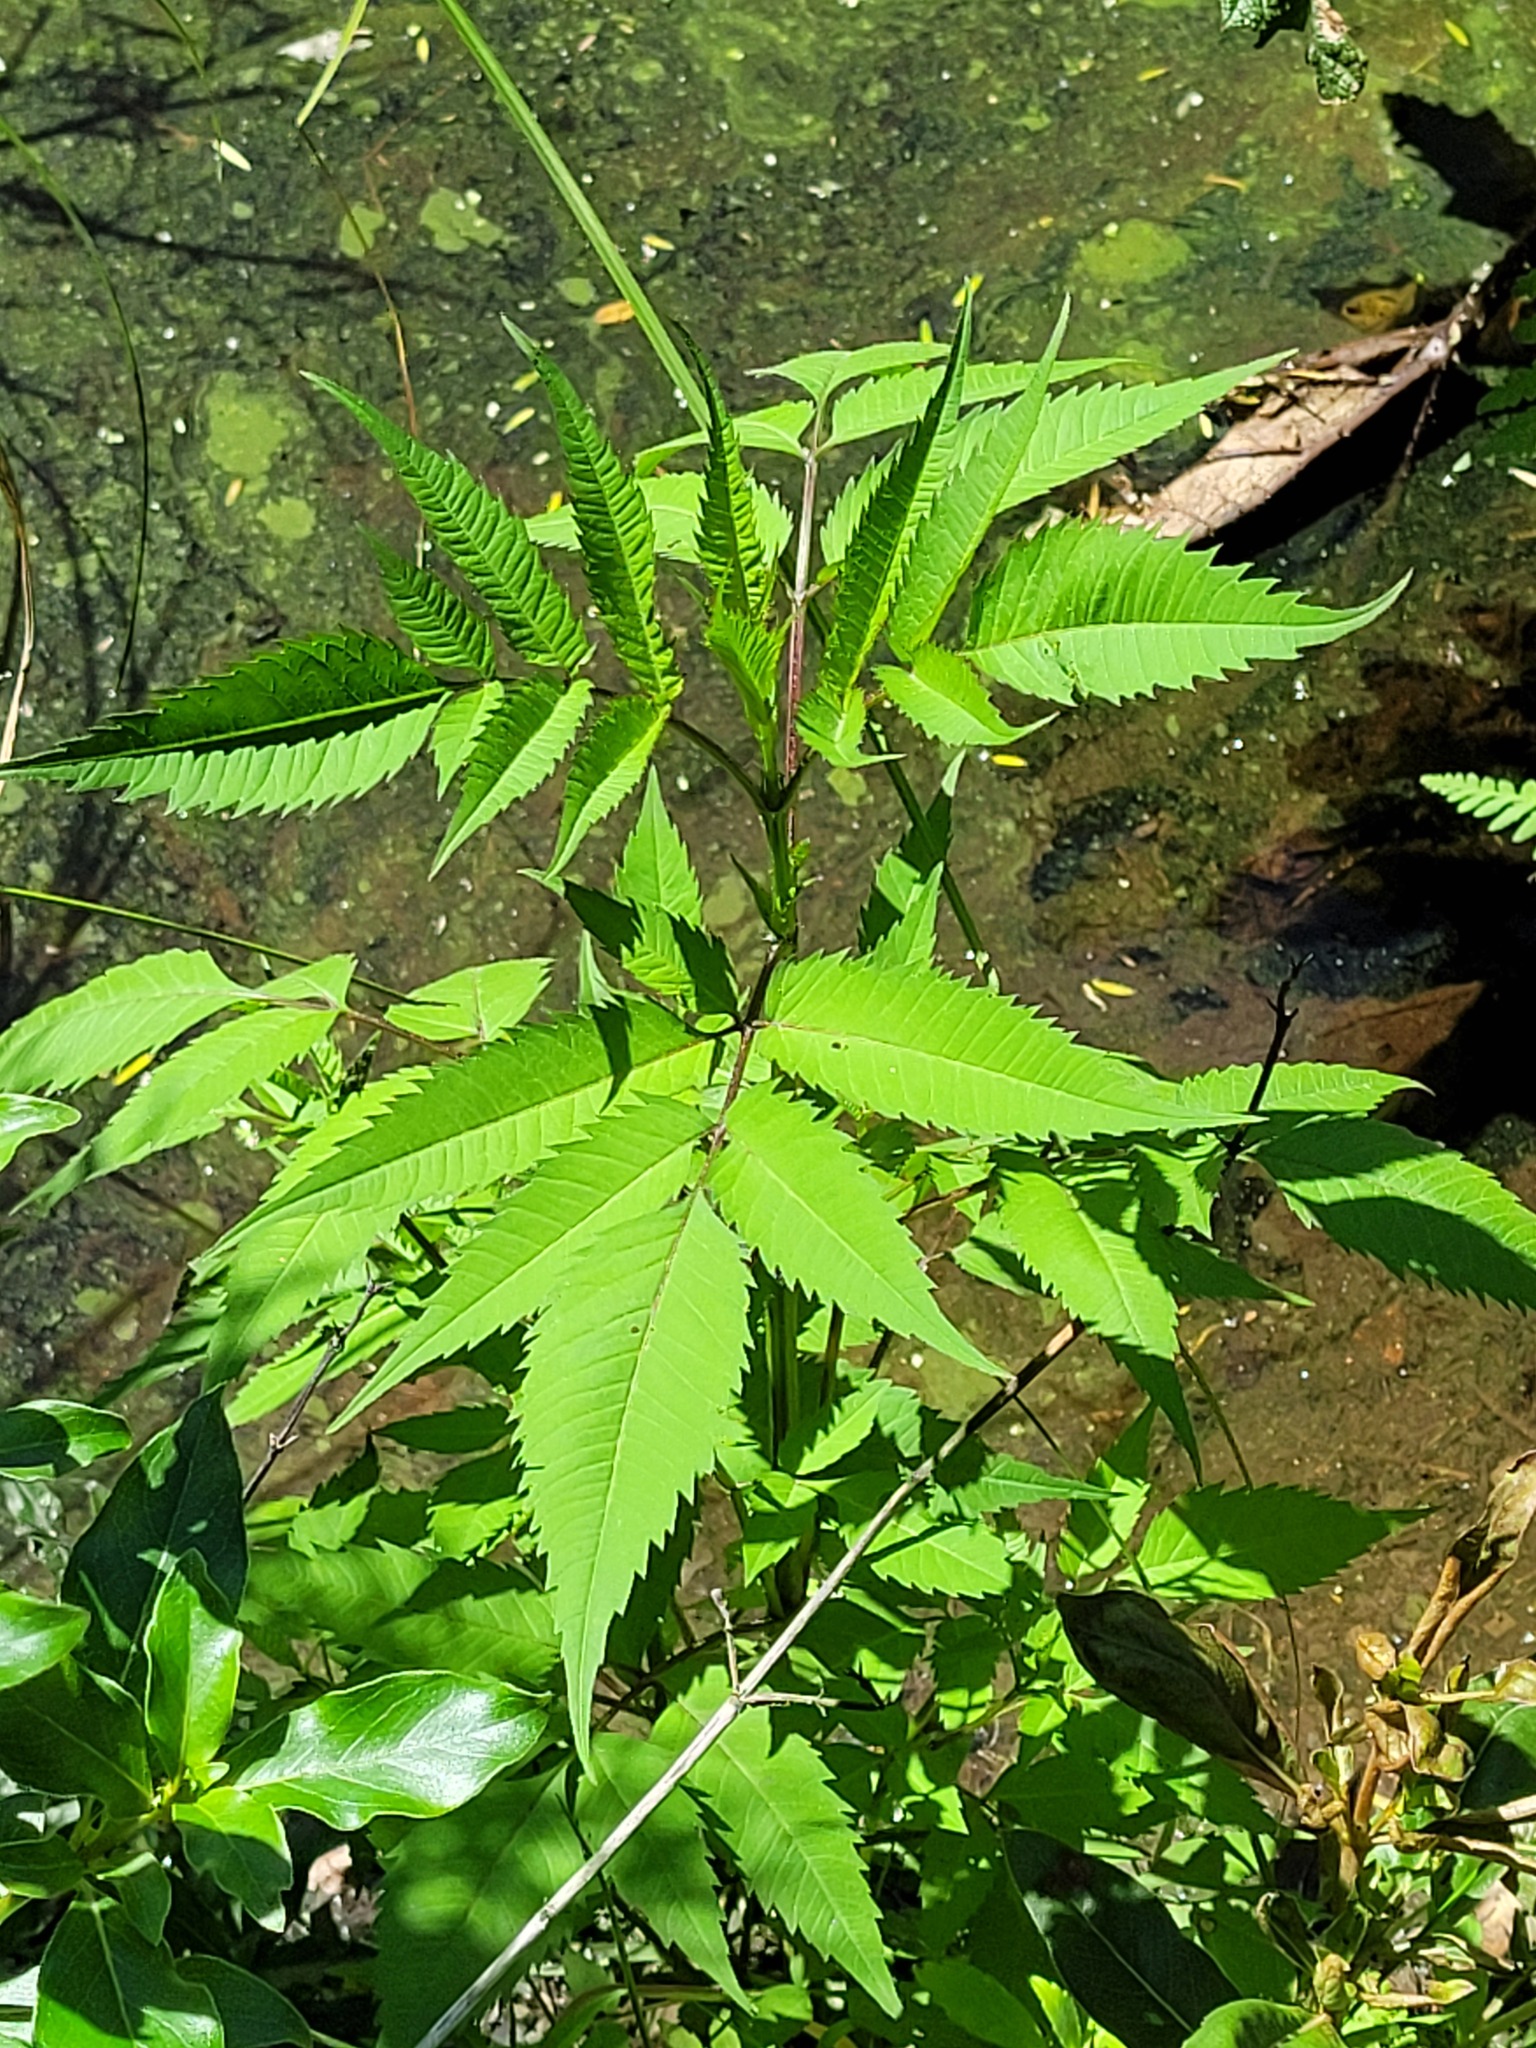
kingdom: Plantae
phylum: Tracheophyta
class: Magnoliopsida
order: Asterales
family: Asteraceae
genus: Bidens
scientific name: Bidens frondosa
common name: Beggarticks
